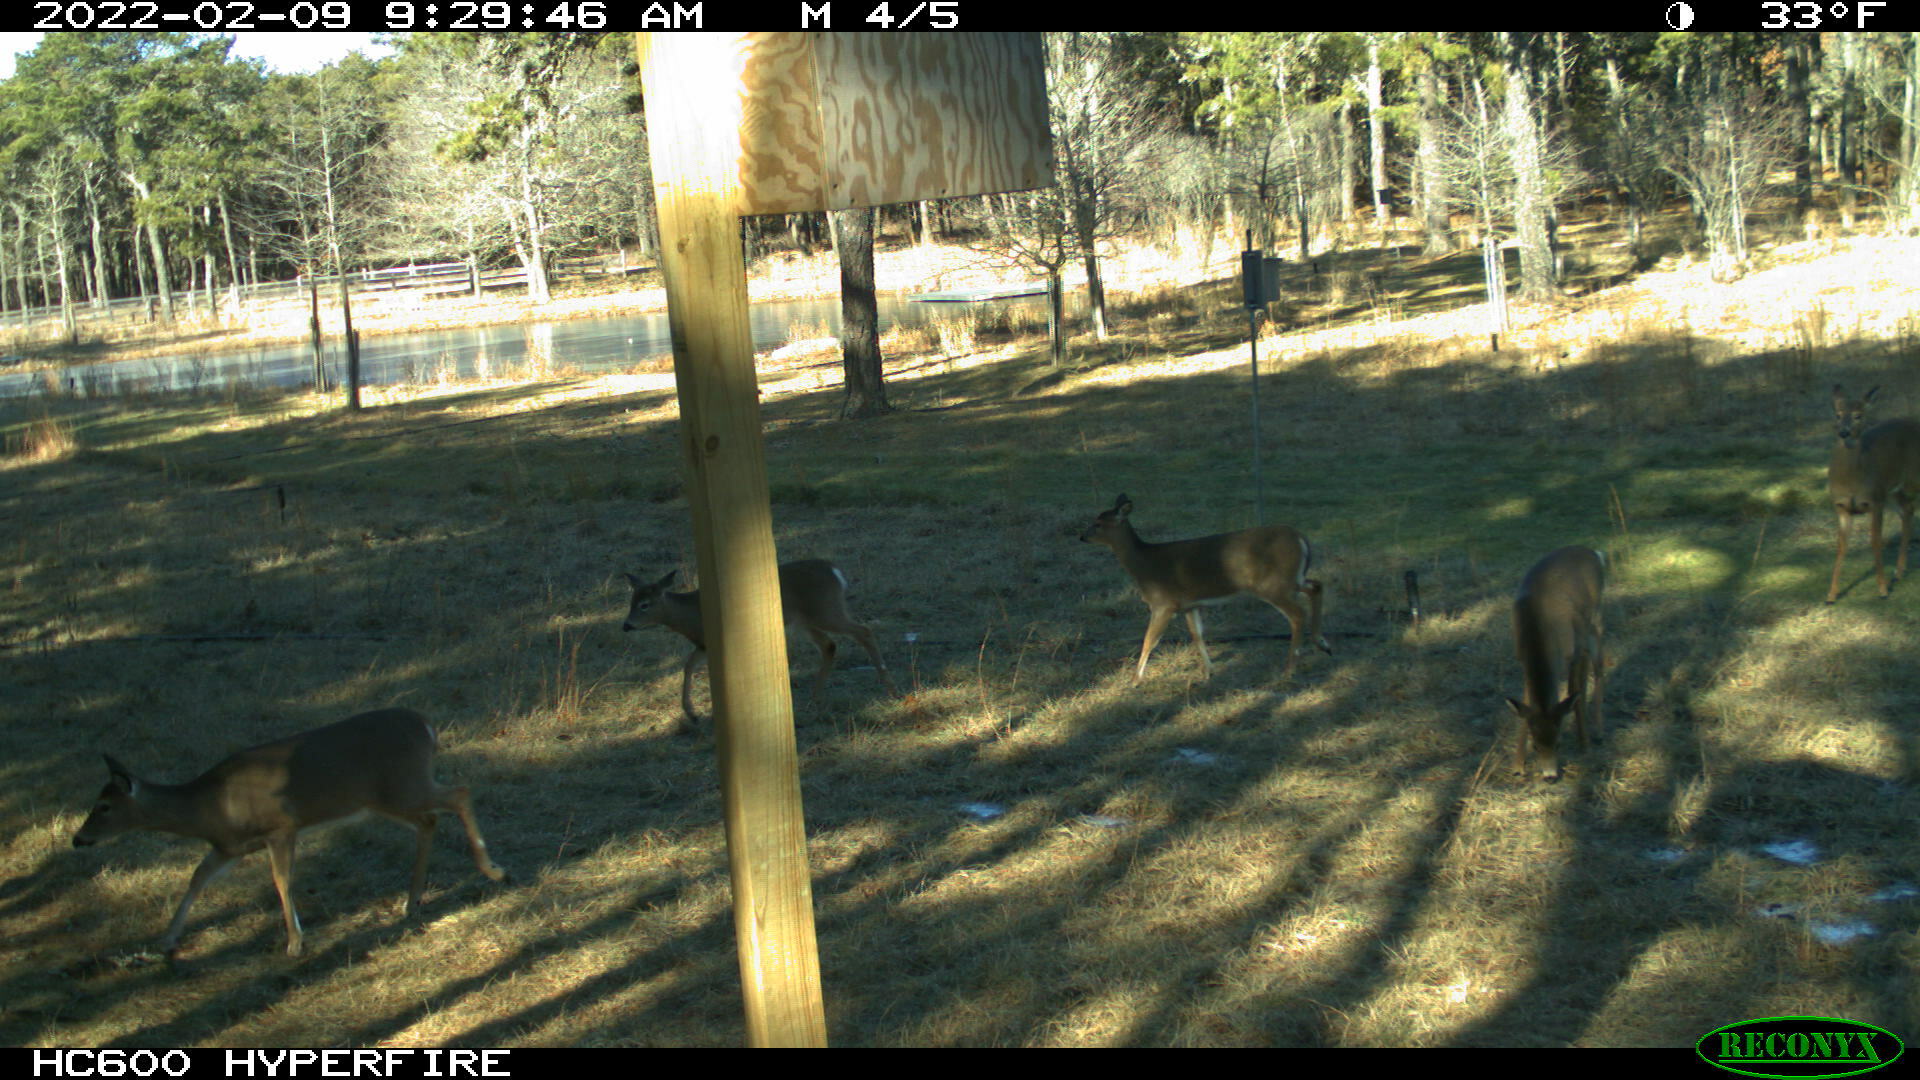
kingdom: Animalia
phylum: Chordata
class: Mammalia
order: Artiodactyla
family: Cervidae
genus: Odocoileus
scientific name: Odocoileus virginianus
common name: White-tailed deer
